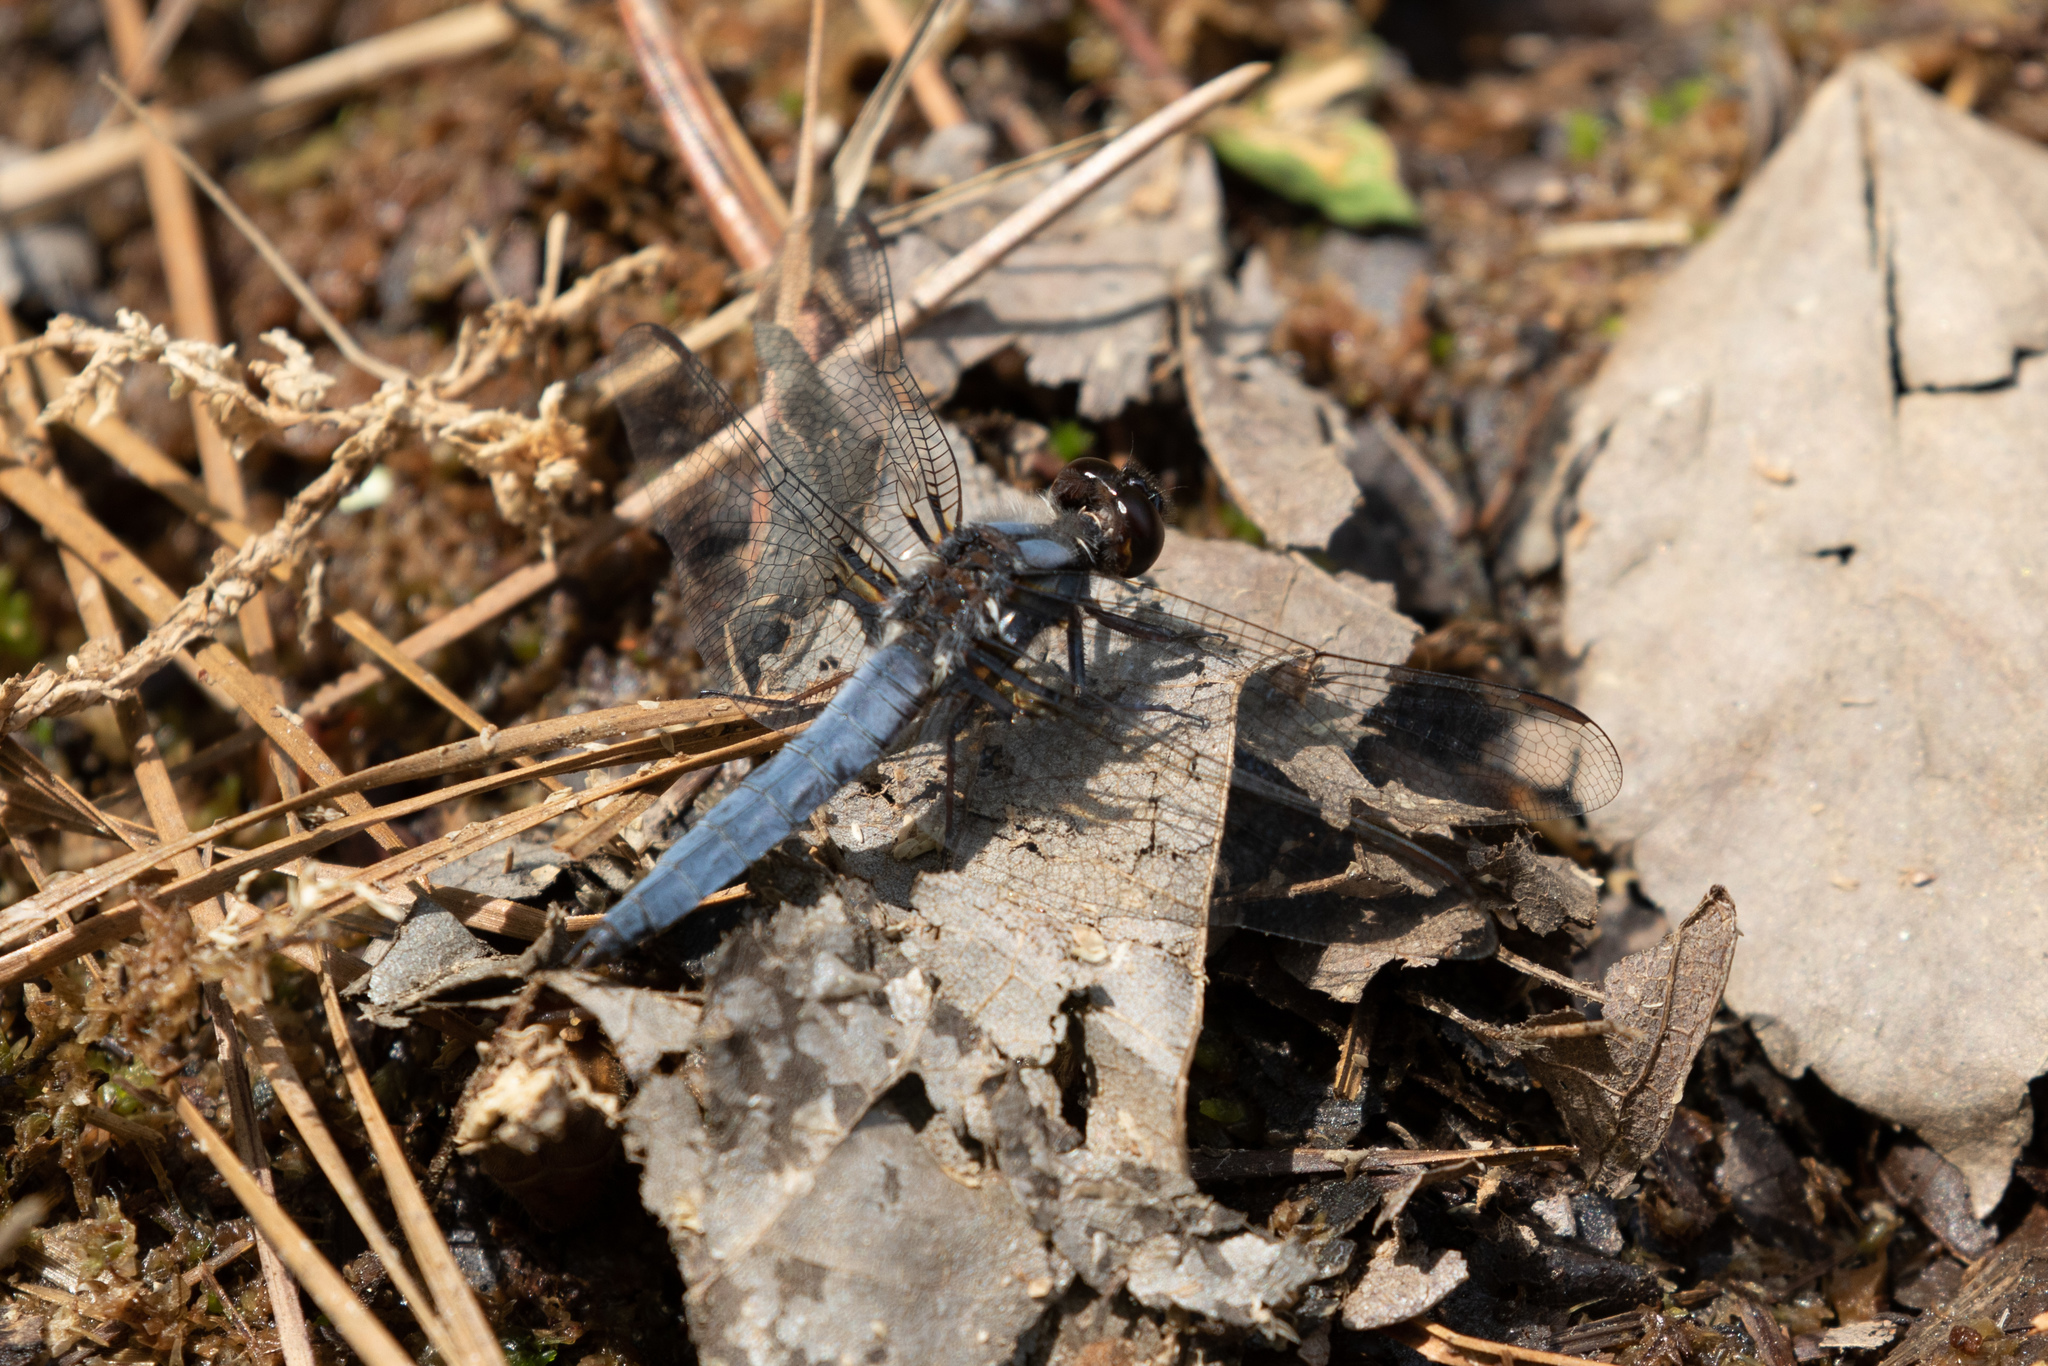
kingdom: Animalia
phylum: Arthropoda
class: Insecta
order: Odonata
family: Libellulidae
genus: Ladona
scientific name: Ladona deplanata
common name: Blue corporal
